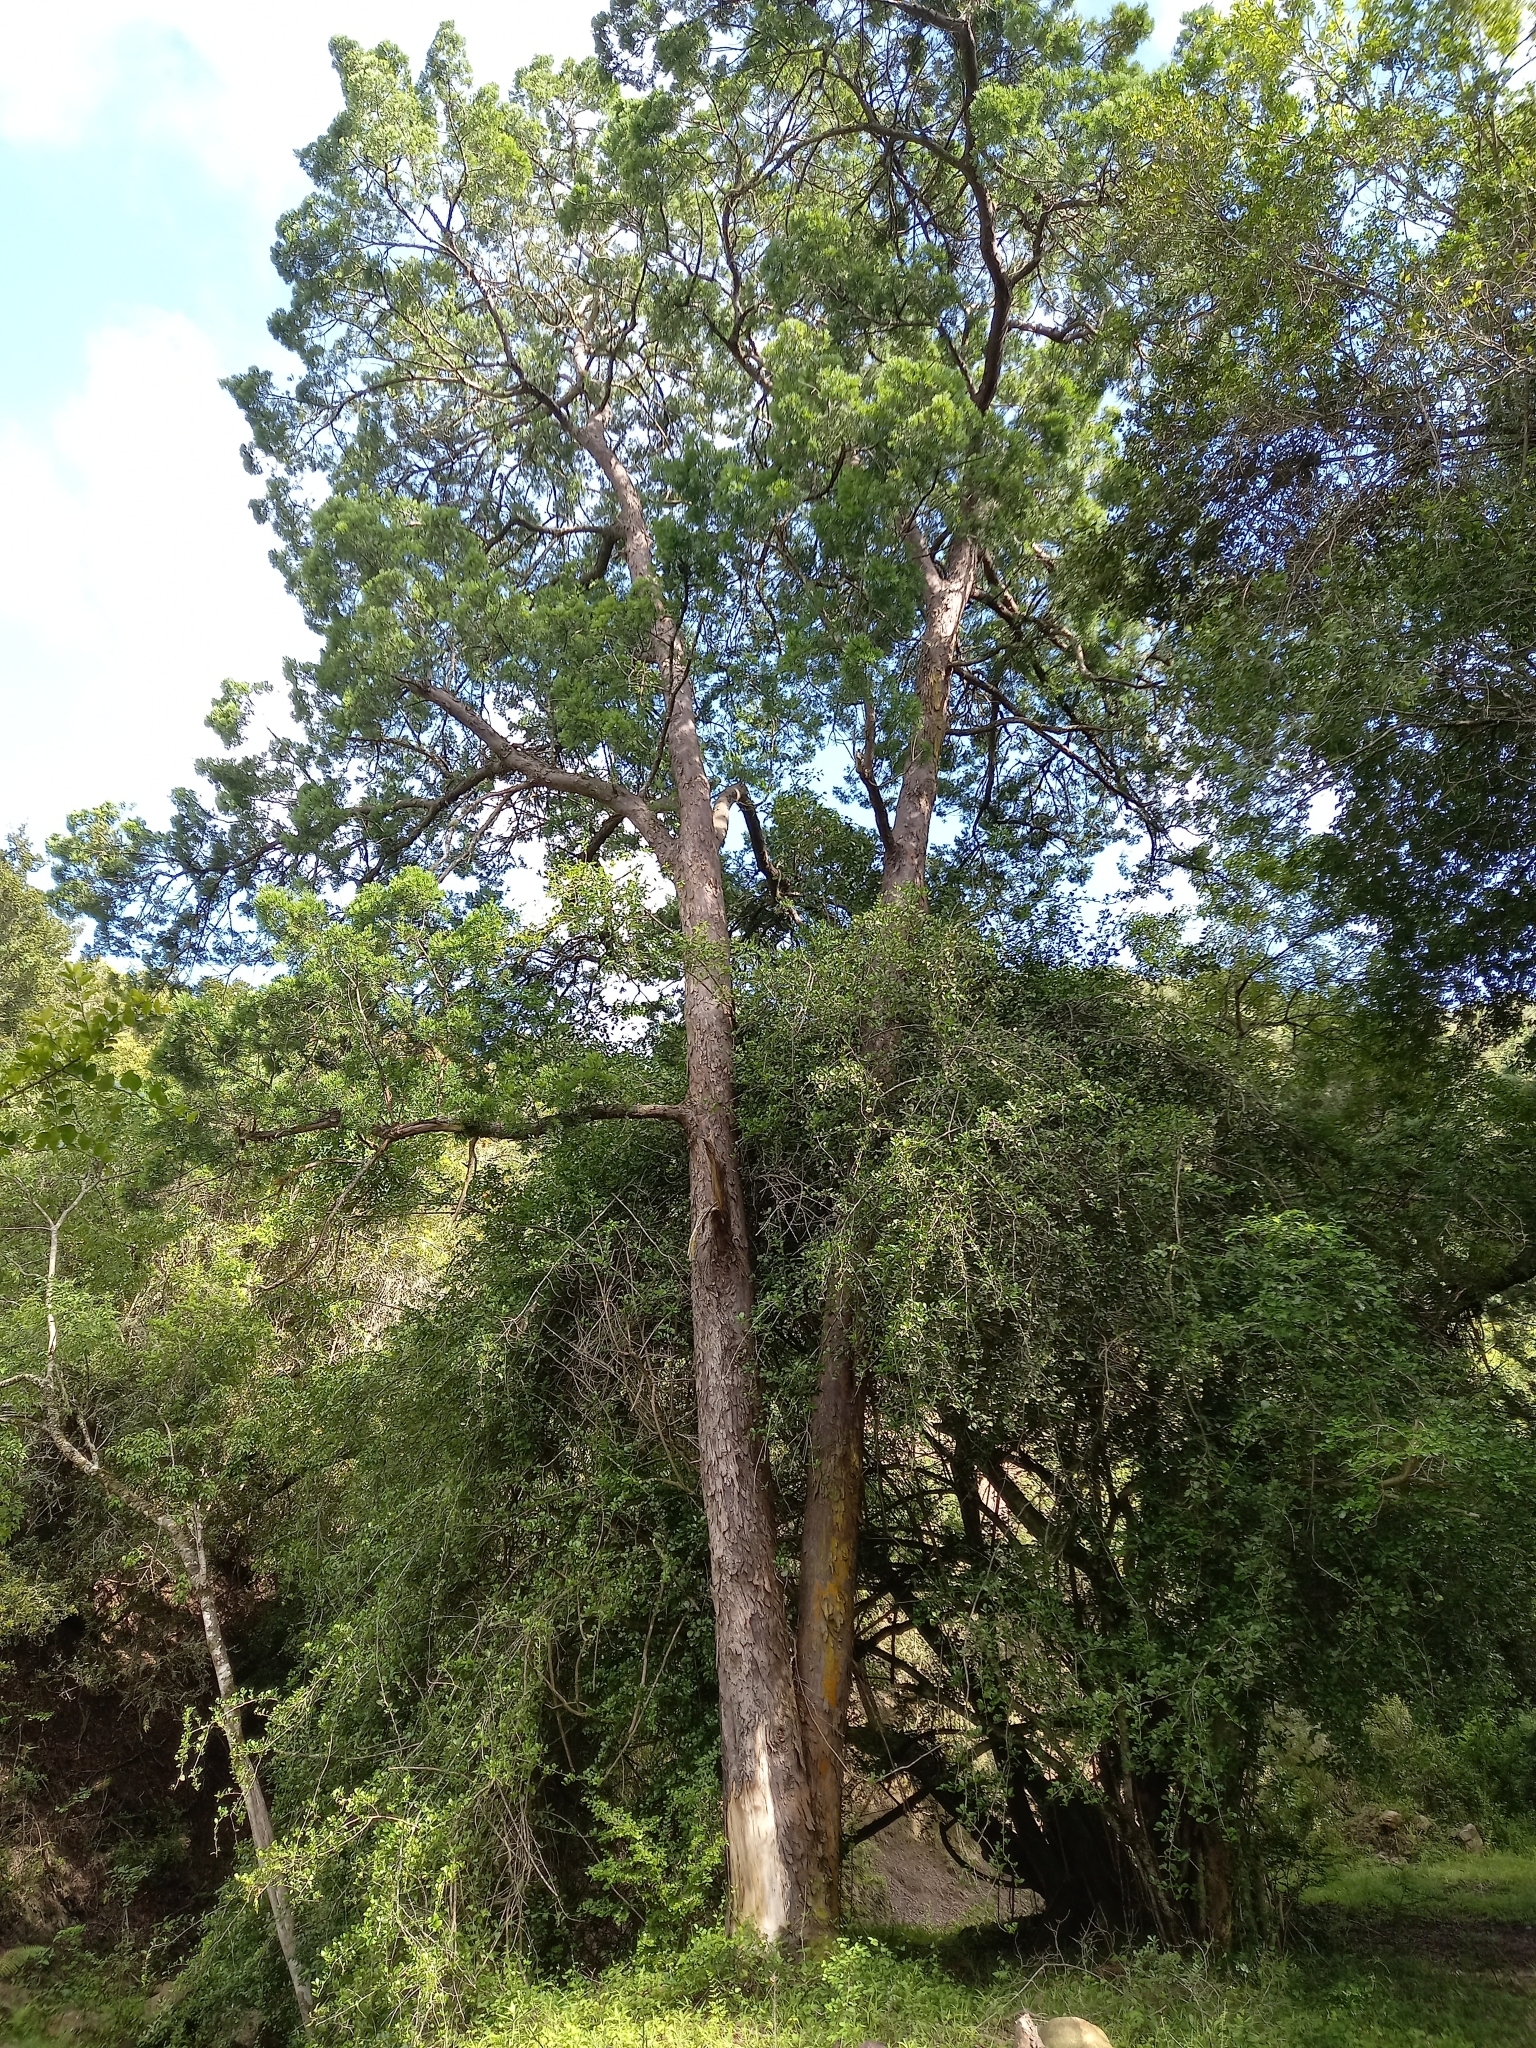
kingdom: Plantae
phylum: Tracheophyta
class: Pinopsida
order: Pinales
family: Podocarpaceae
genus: Afrocarpus
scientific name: Afrocarpus falcatus
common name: Bastard yellowwood
